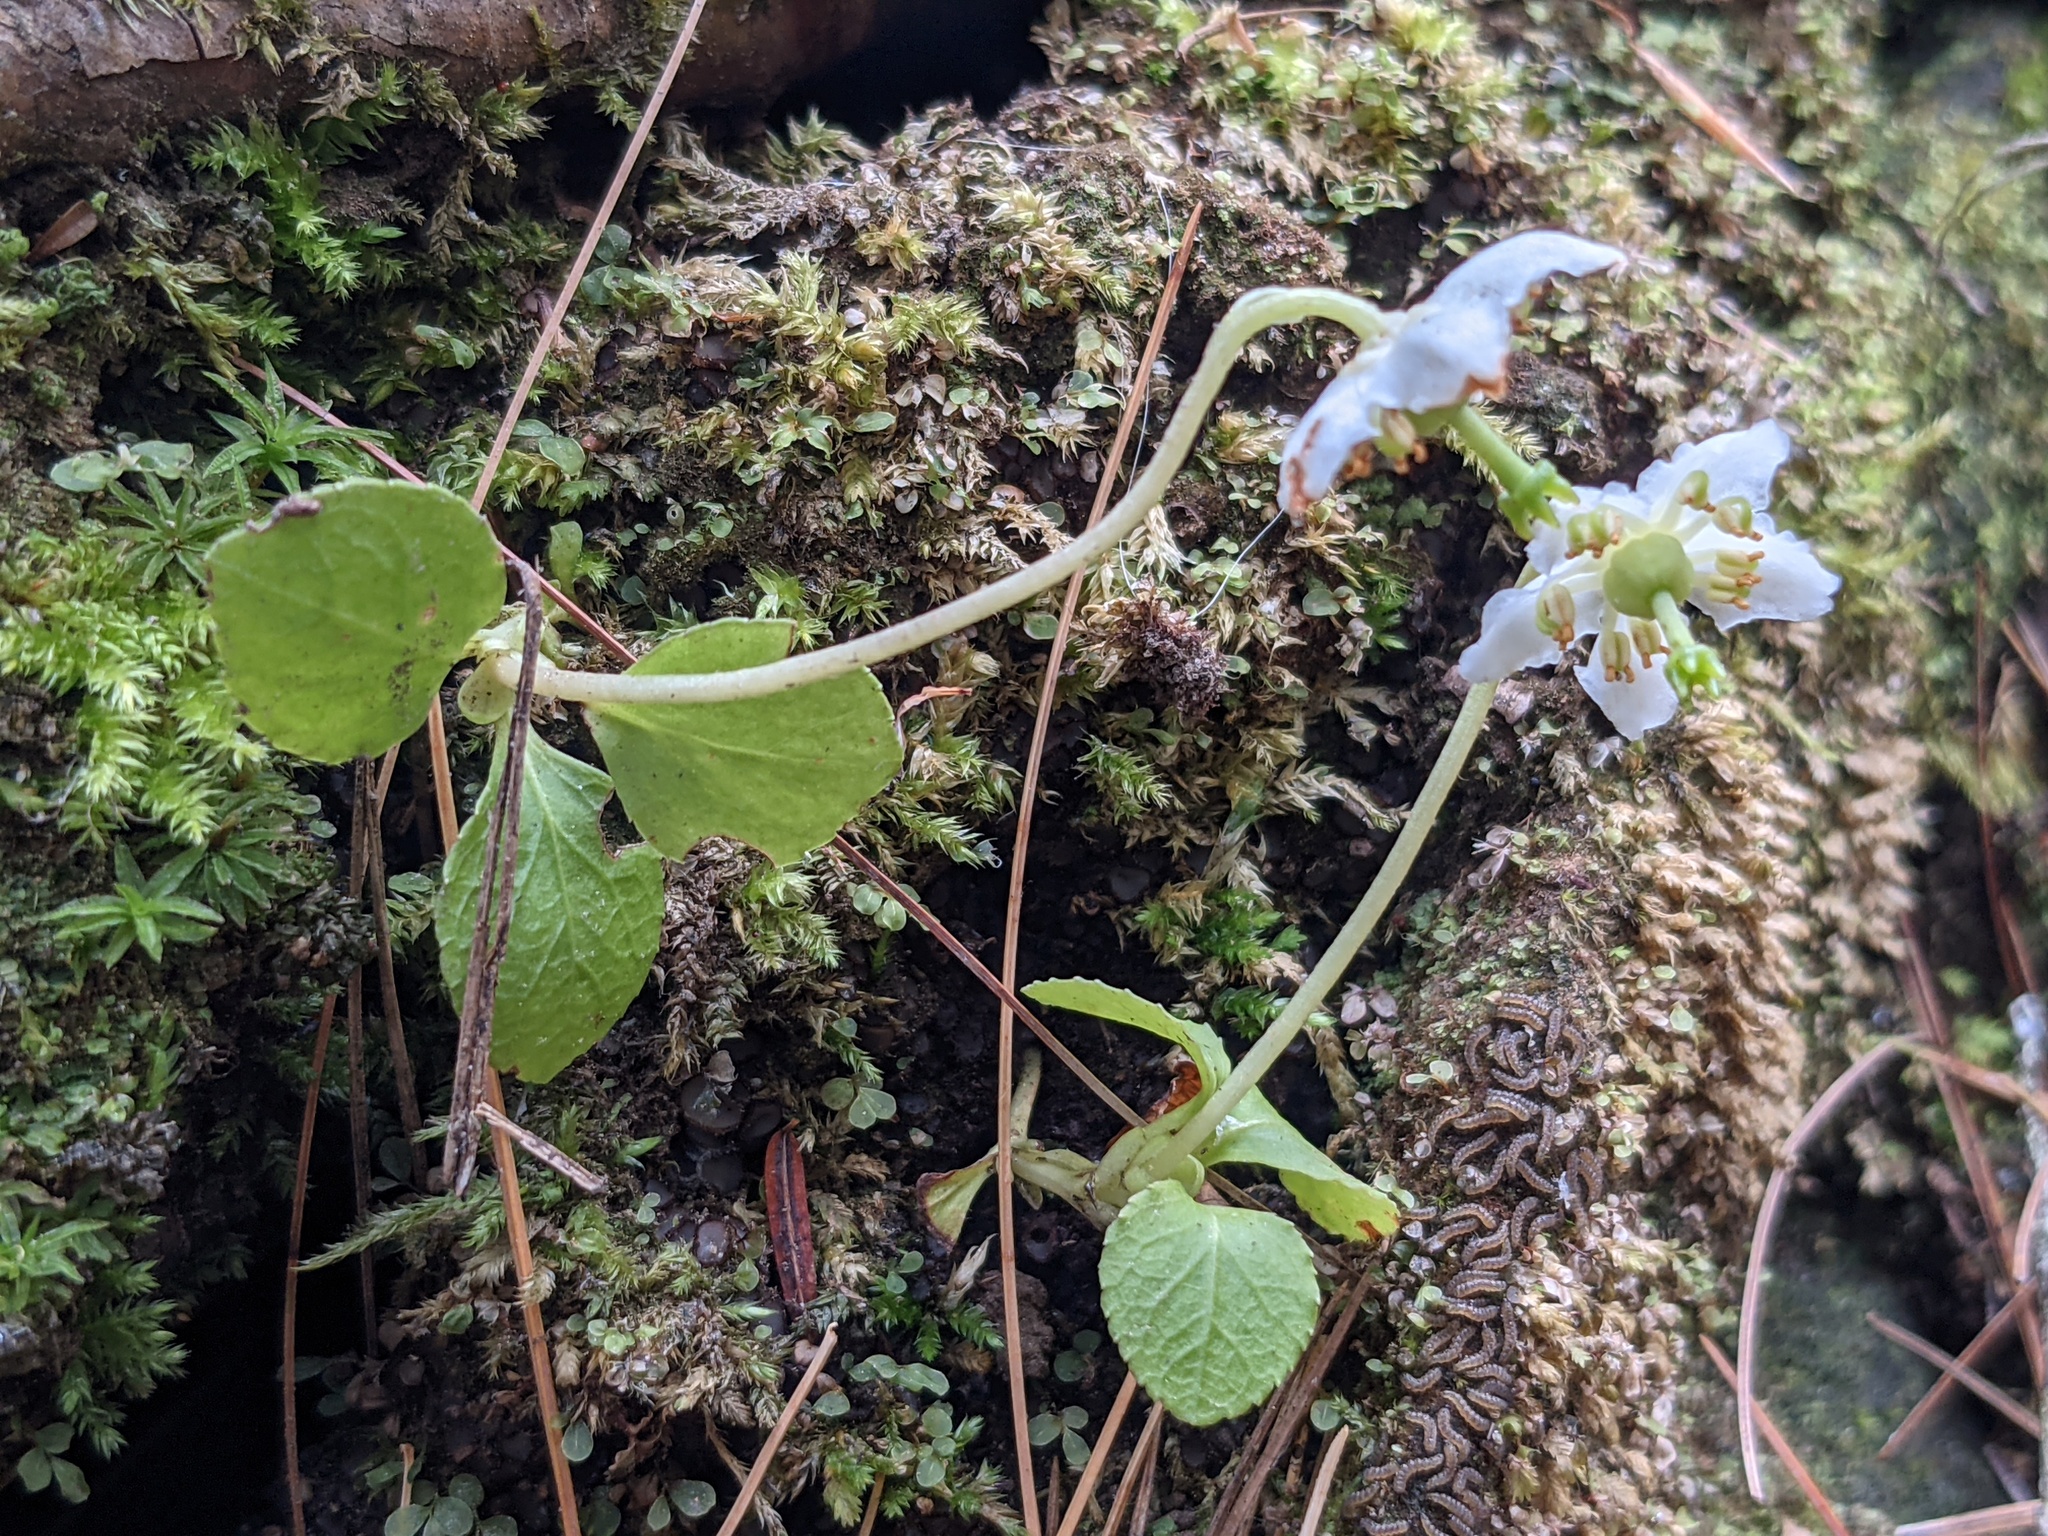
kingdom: Plantae
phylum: Tracheophyta
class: Magnoliopsida
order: Ericales
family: Ericaceae
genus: Moneses
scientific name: Moneses uniflora
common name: One-flowered wintergreen
